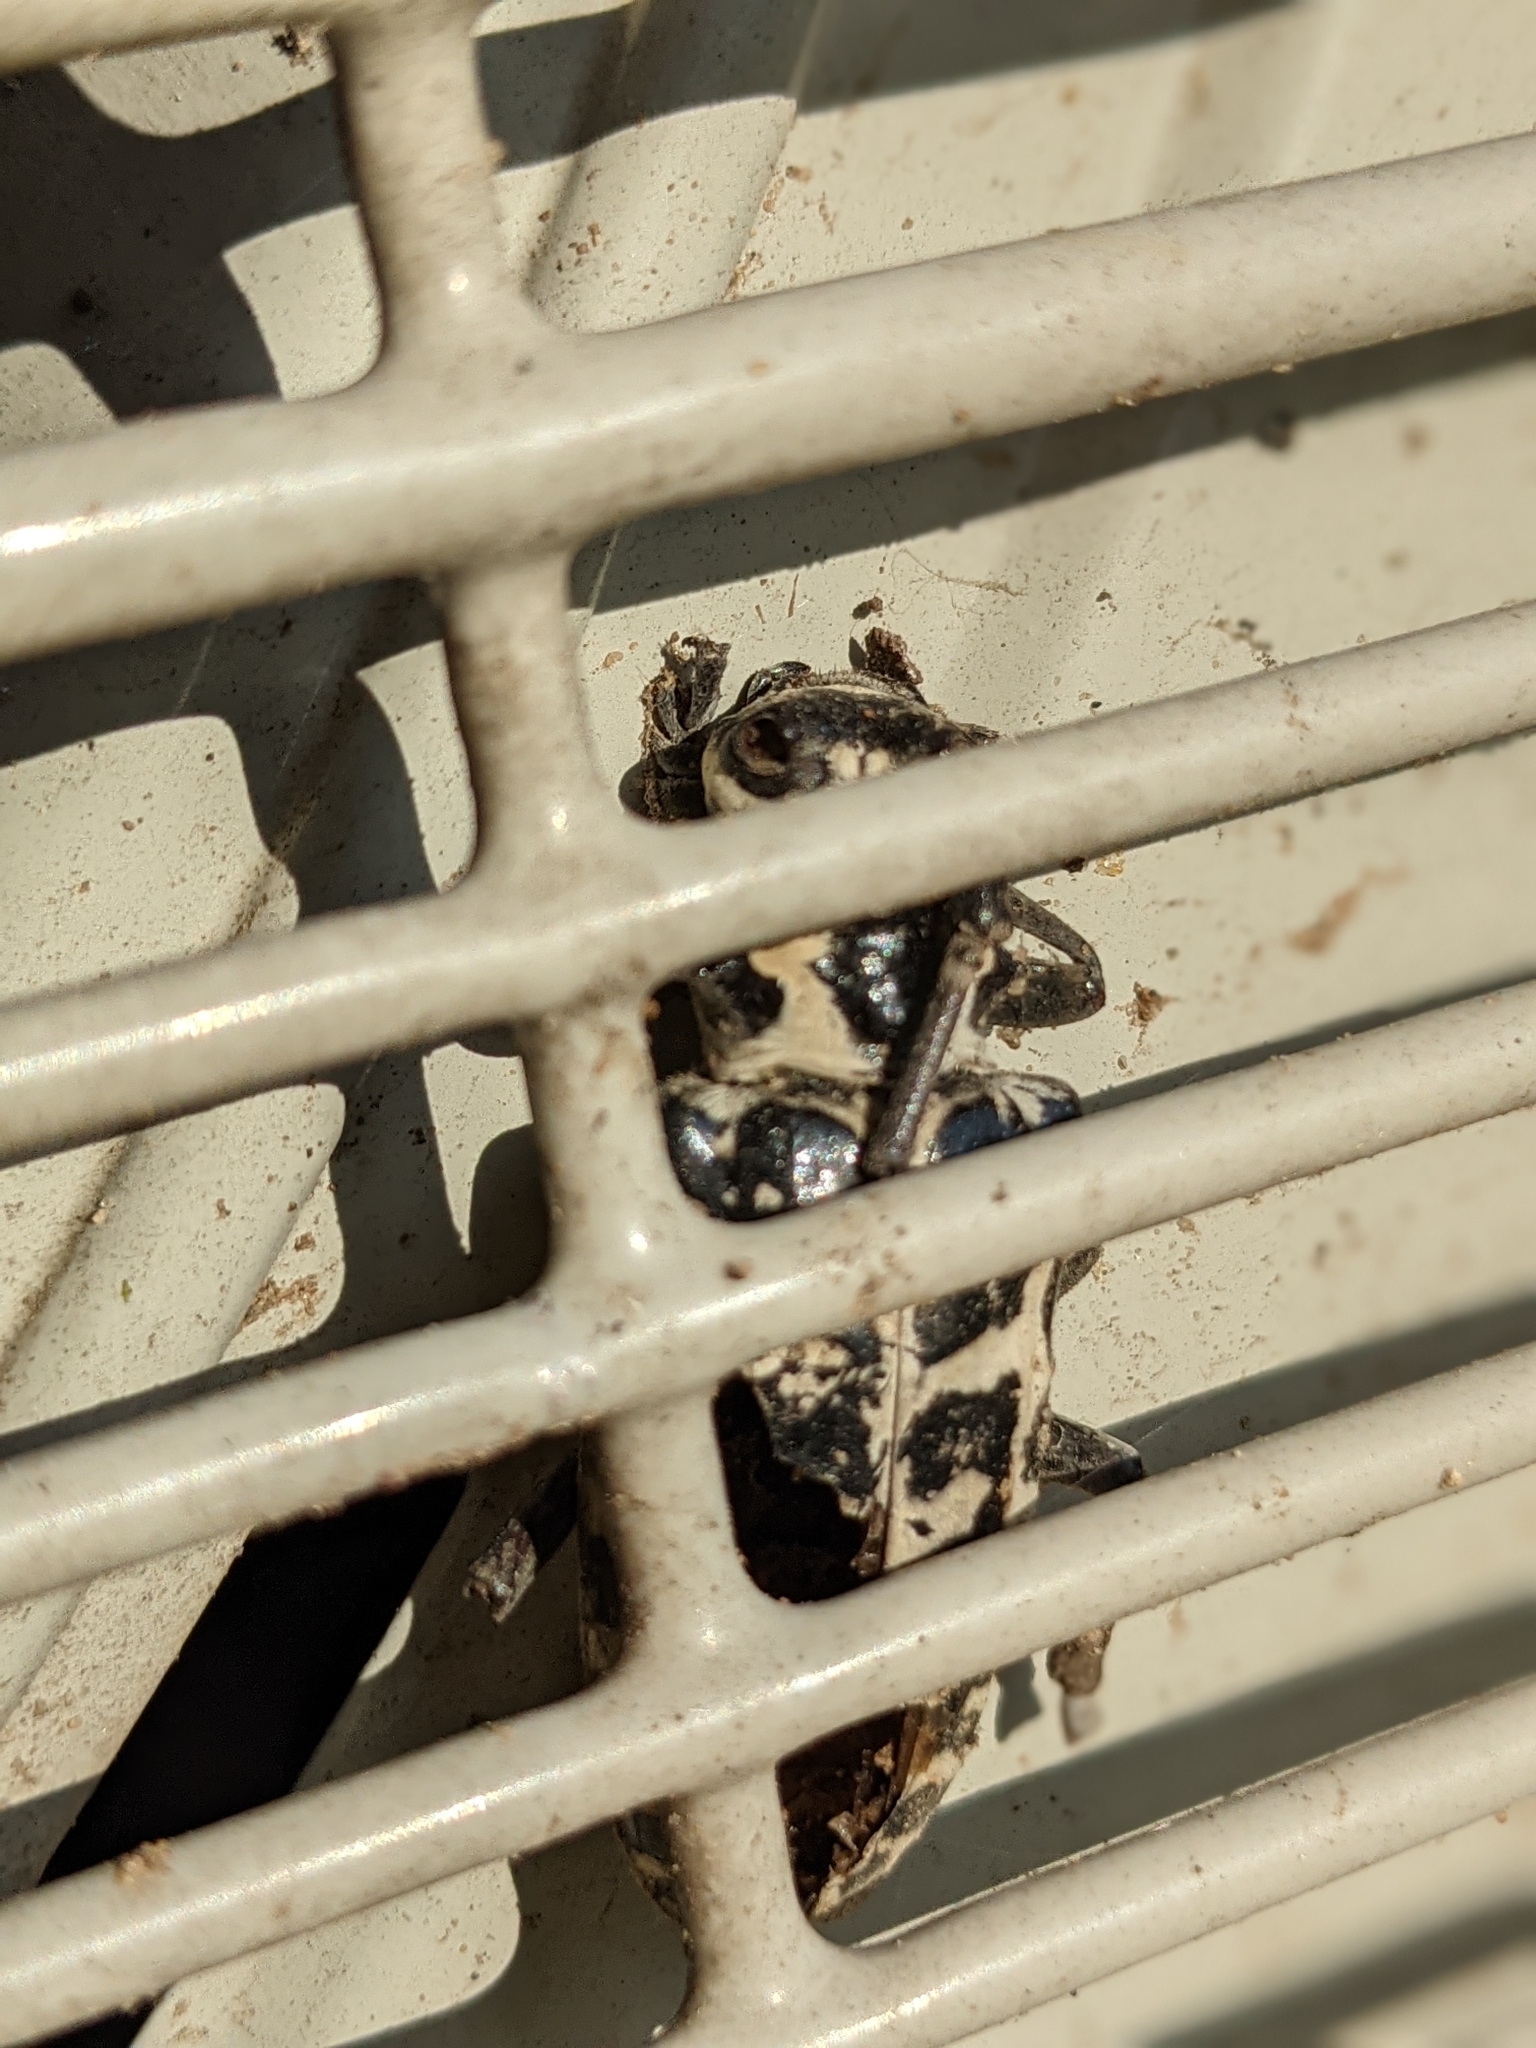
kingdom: Animalia
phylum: Arthropoda
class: Insecta
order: Coleoptera
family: Cerambycidae
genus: Plectrodera
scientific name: Plectrodera scalator
